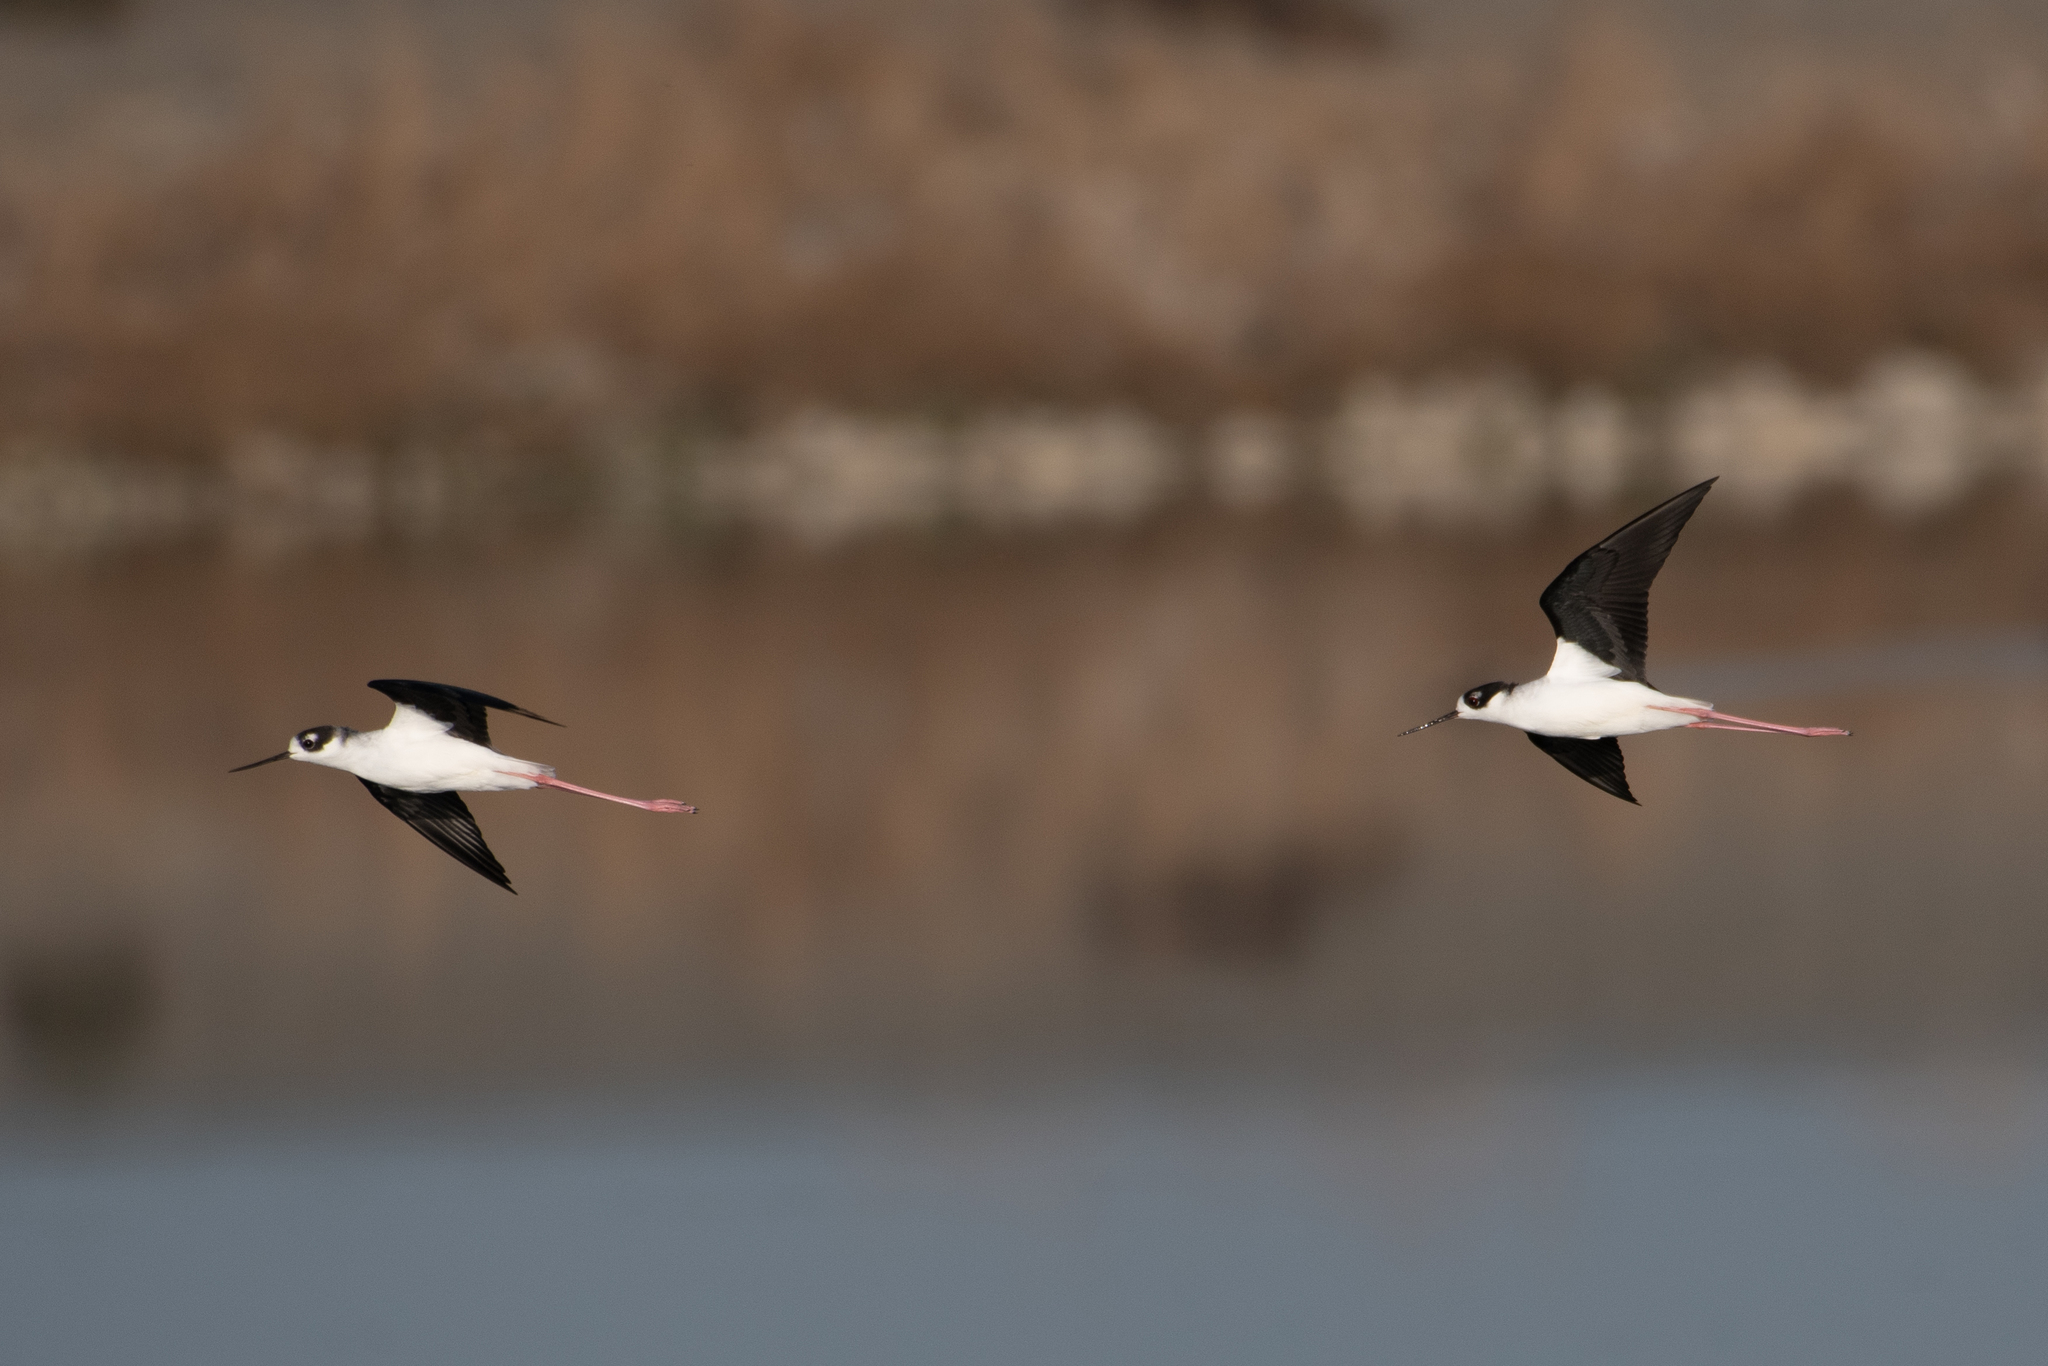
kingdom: Animalia
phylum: Chordata
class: Aves
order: Charadriiformes
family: Recurvirostridae
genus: Himantopus
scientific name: Himantopus mexicanus
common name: Black-necked stilt
